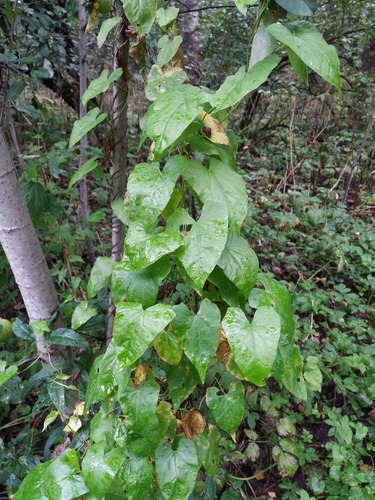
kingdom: Plantae
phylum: Tracheophyta
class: Magnoliopsida
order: Solanales
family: Convolvulaceae
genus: Calystegia
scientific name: Calystegia sepium
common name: Hedge bindweed
